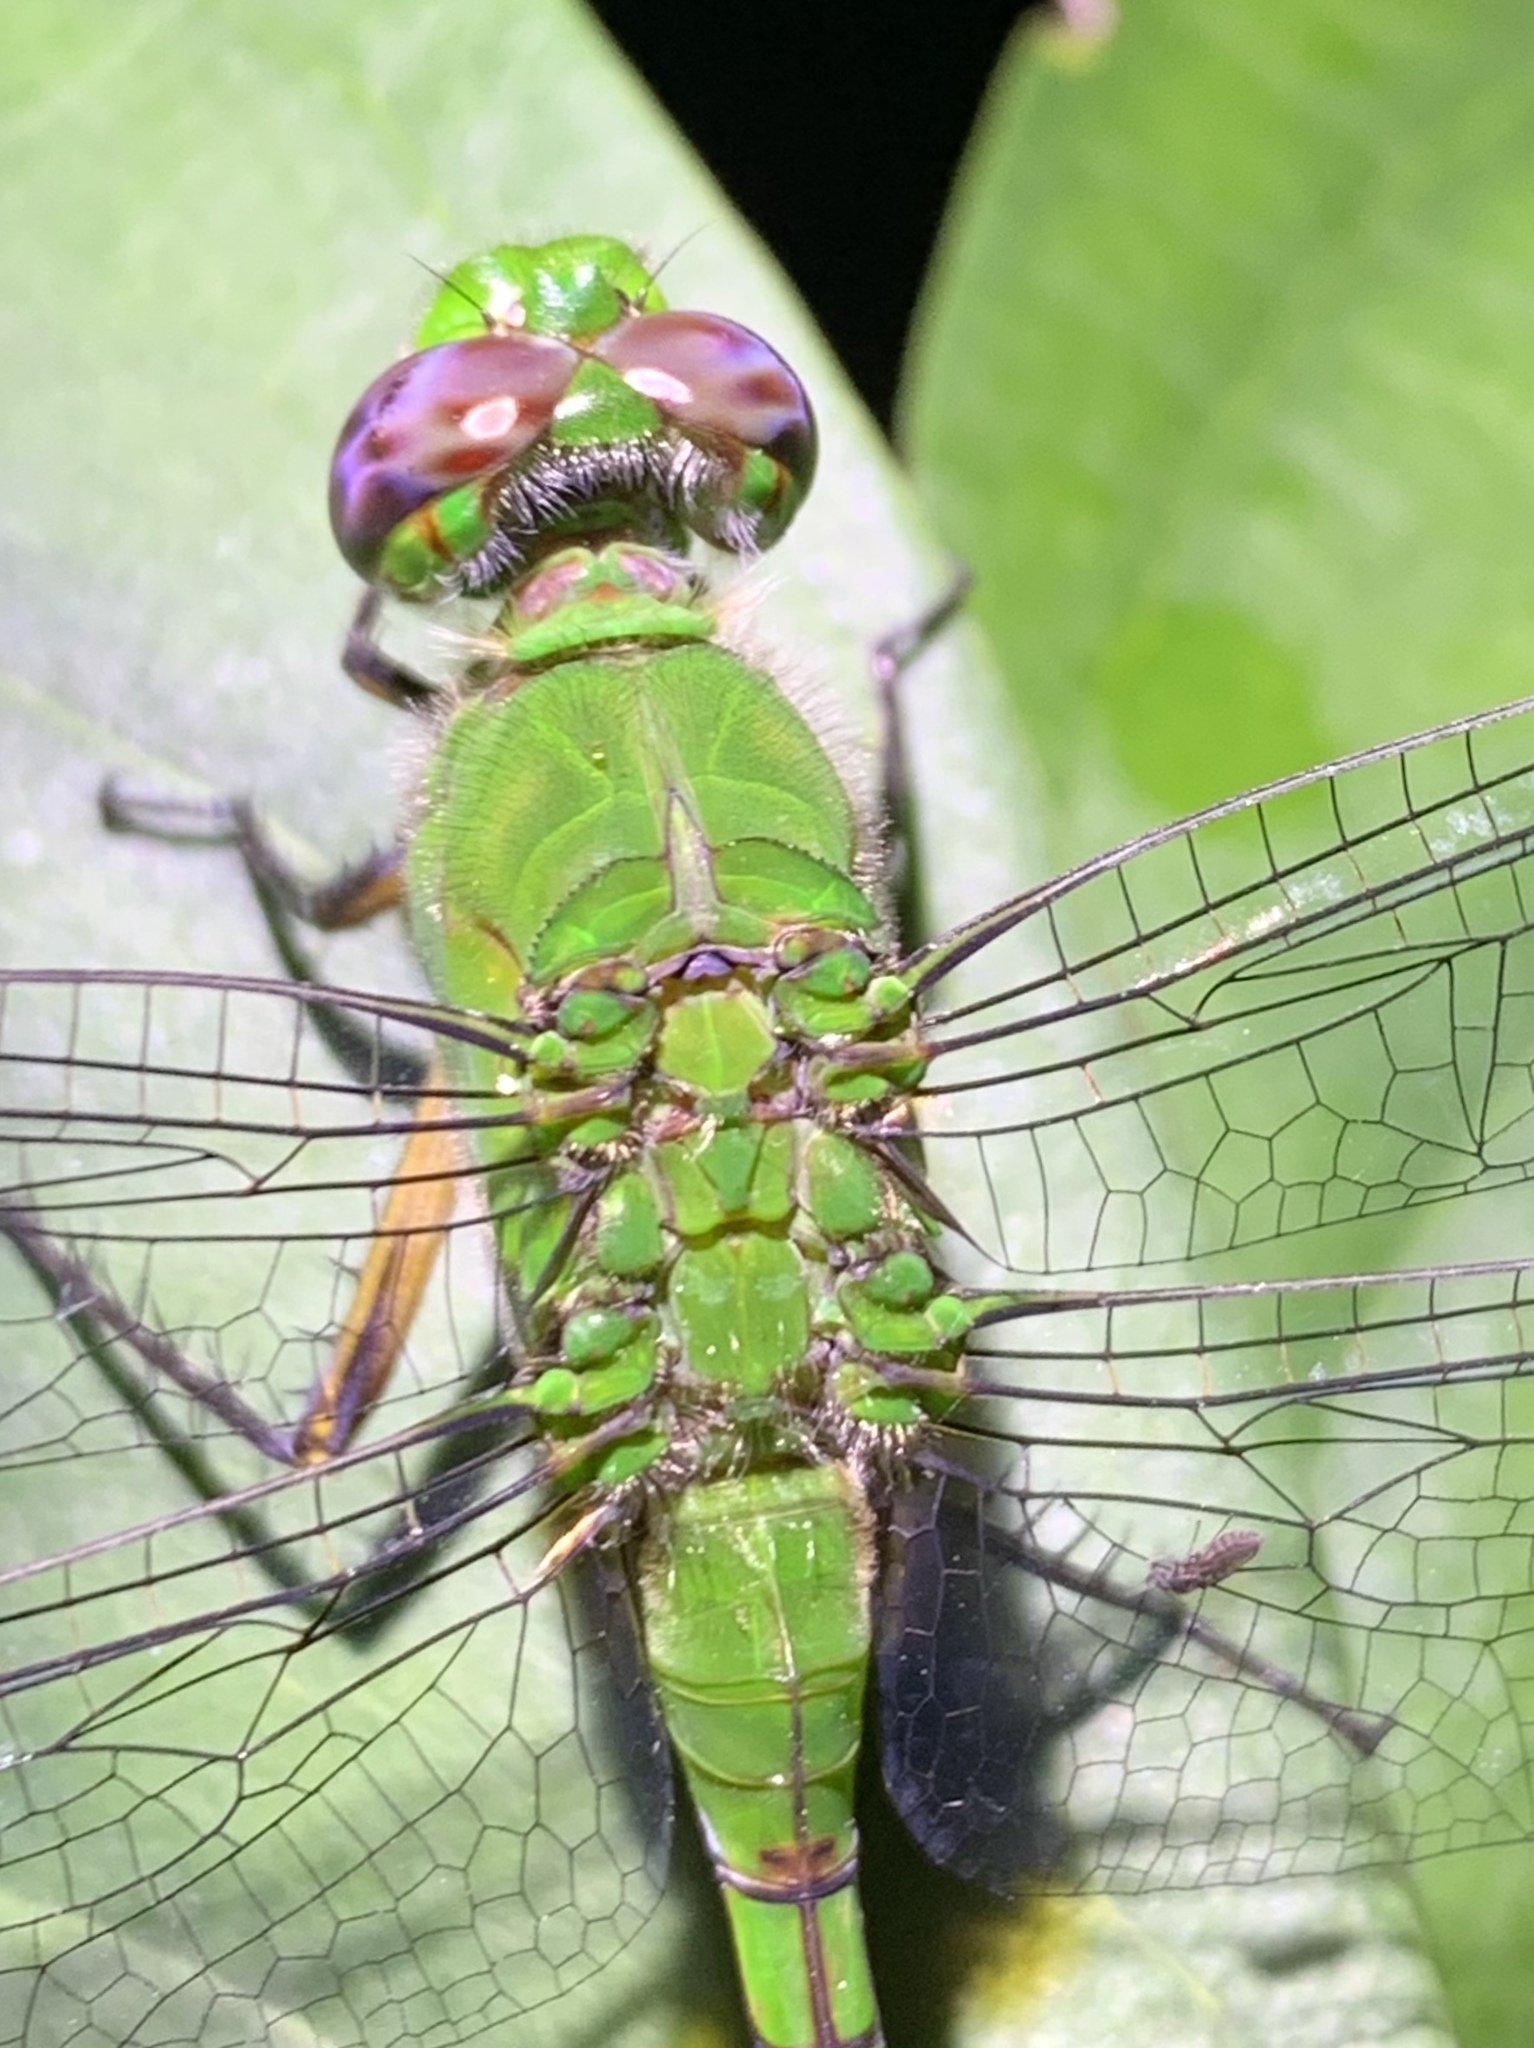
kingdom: Animalia
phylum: Arthropoda
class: Insecta
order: Odonata
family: Libellulidae
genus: Erythemis
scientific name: Erythemis vesiculosa
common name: Great pondhawk
